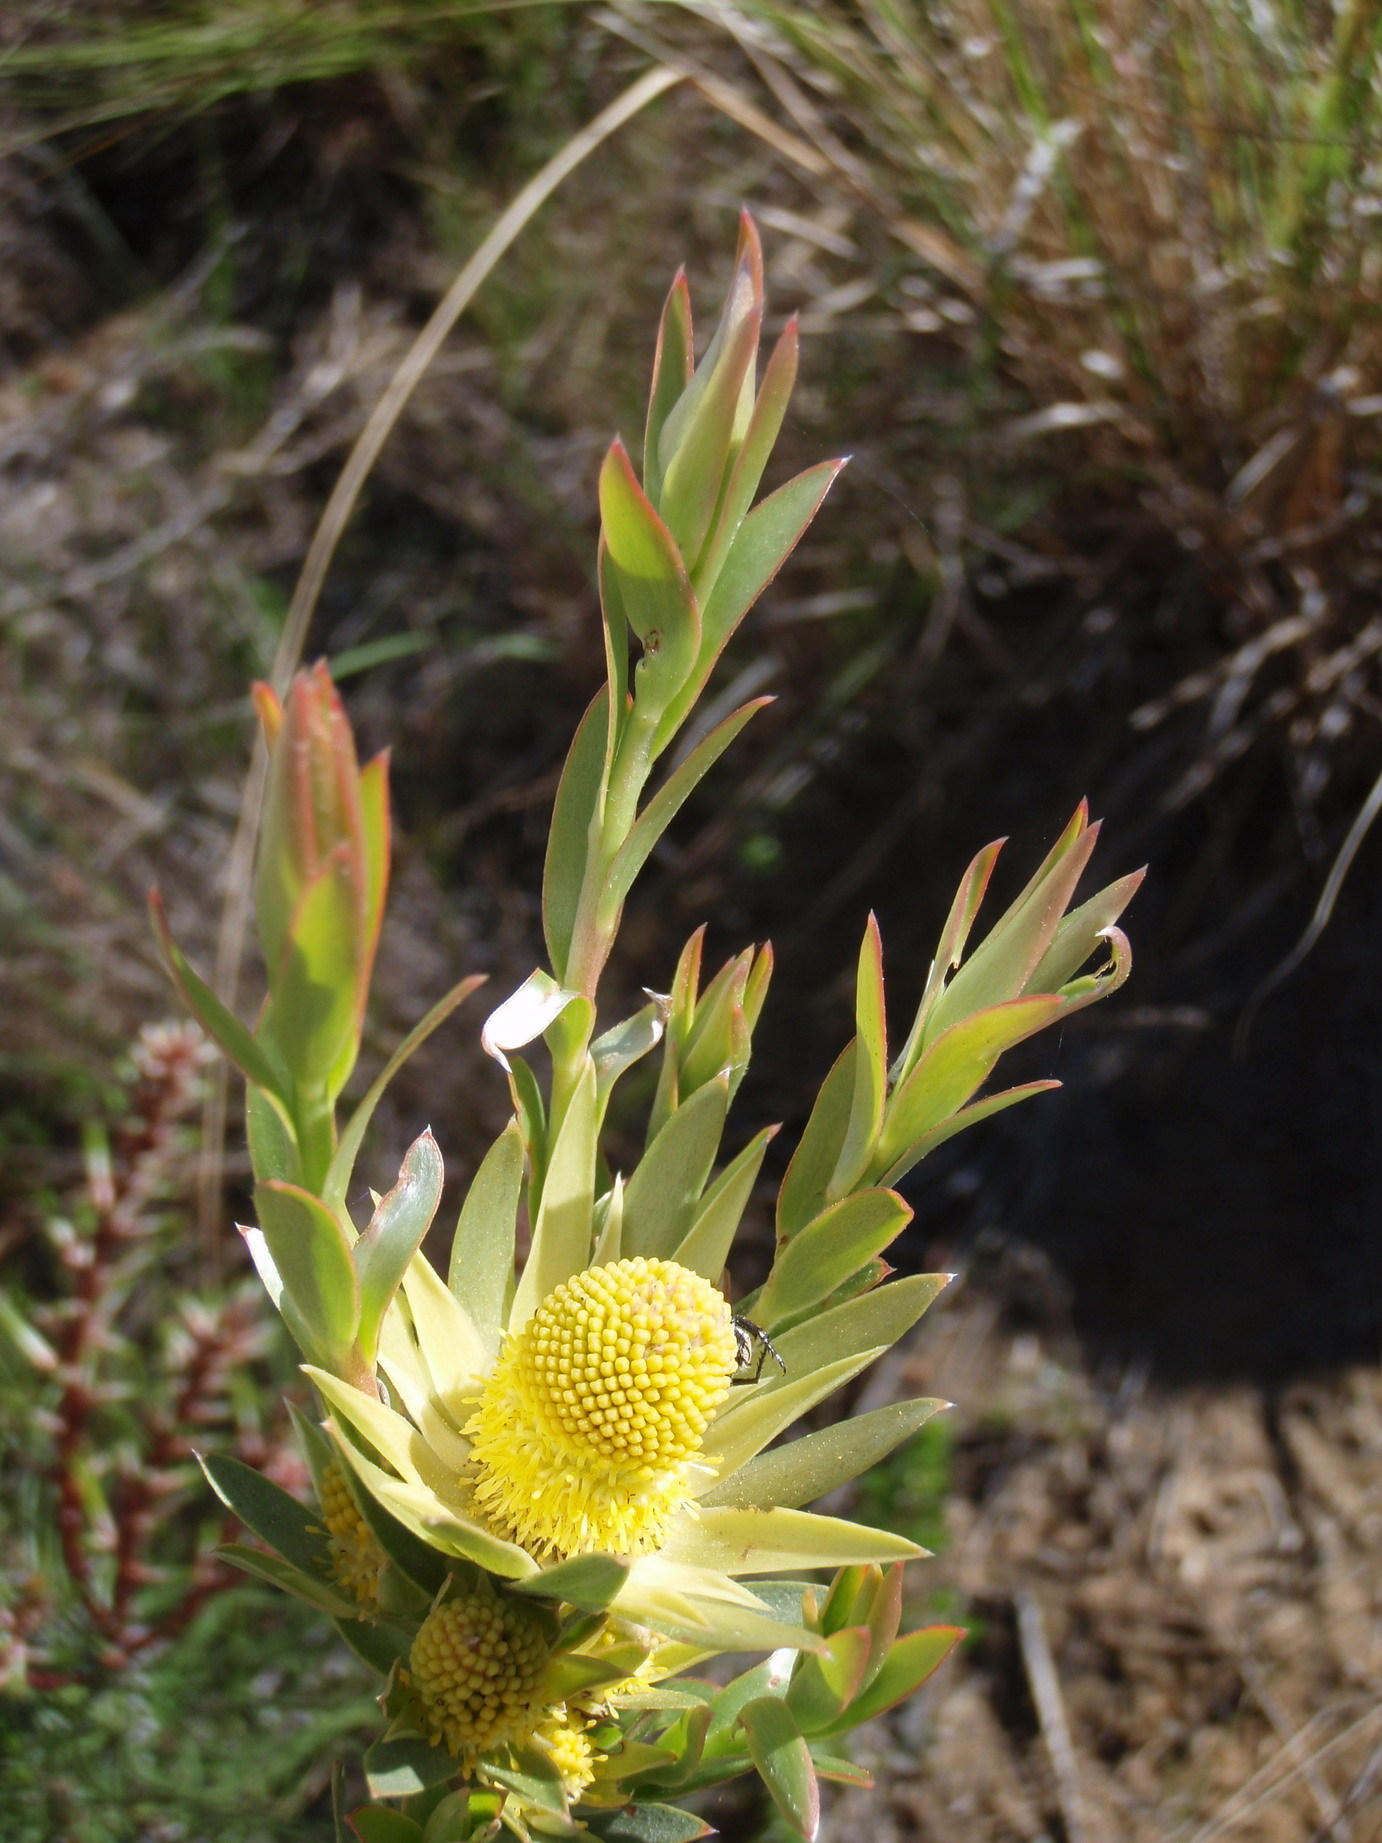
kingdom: Plantae
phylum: Tracheophyta
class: Magnoliopsida
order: Proteales
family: Proteaceae
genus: Leucadendron
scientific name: Leucadendron uliginosum
